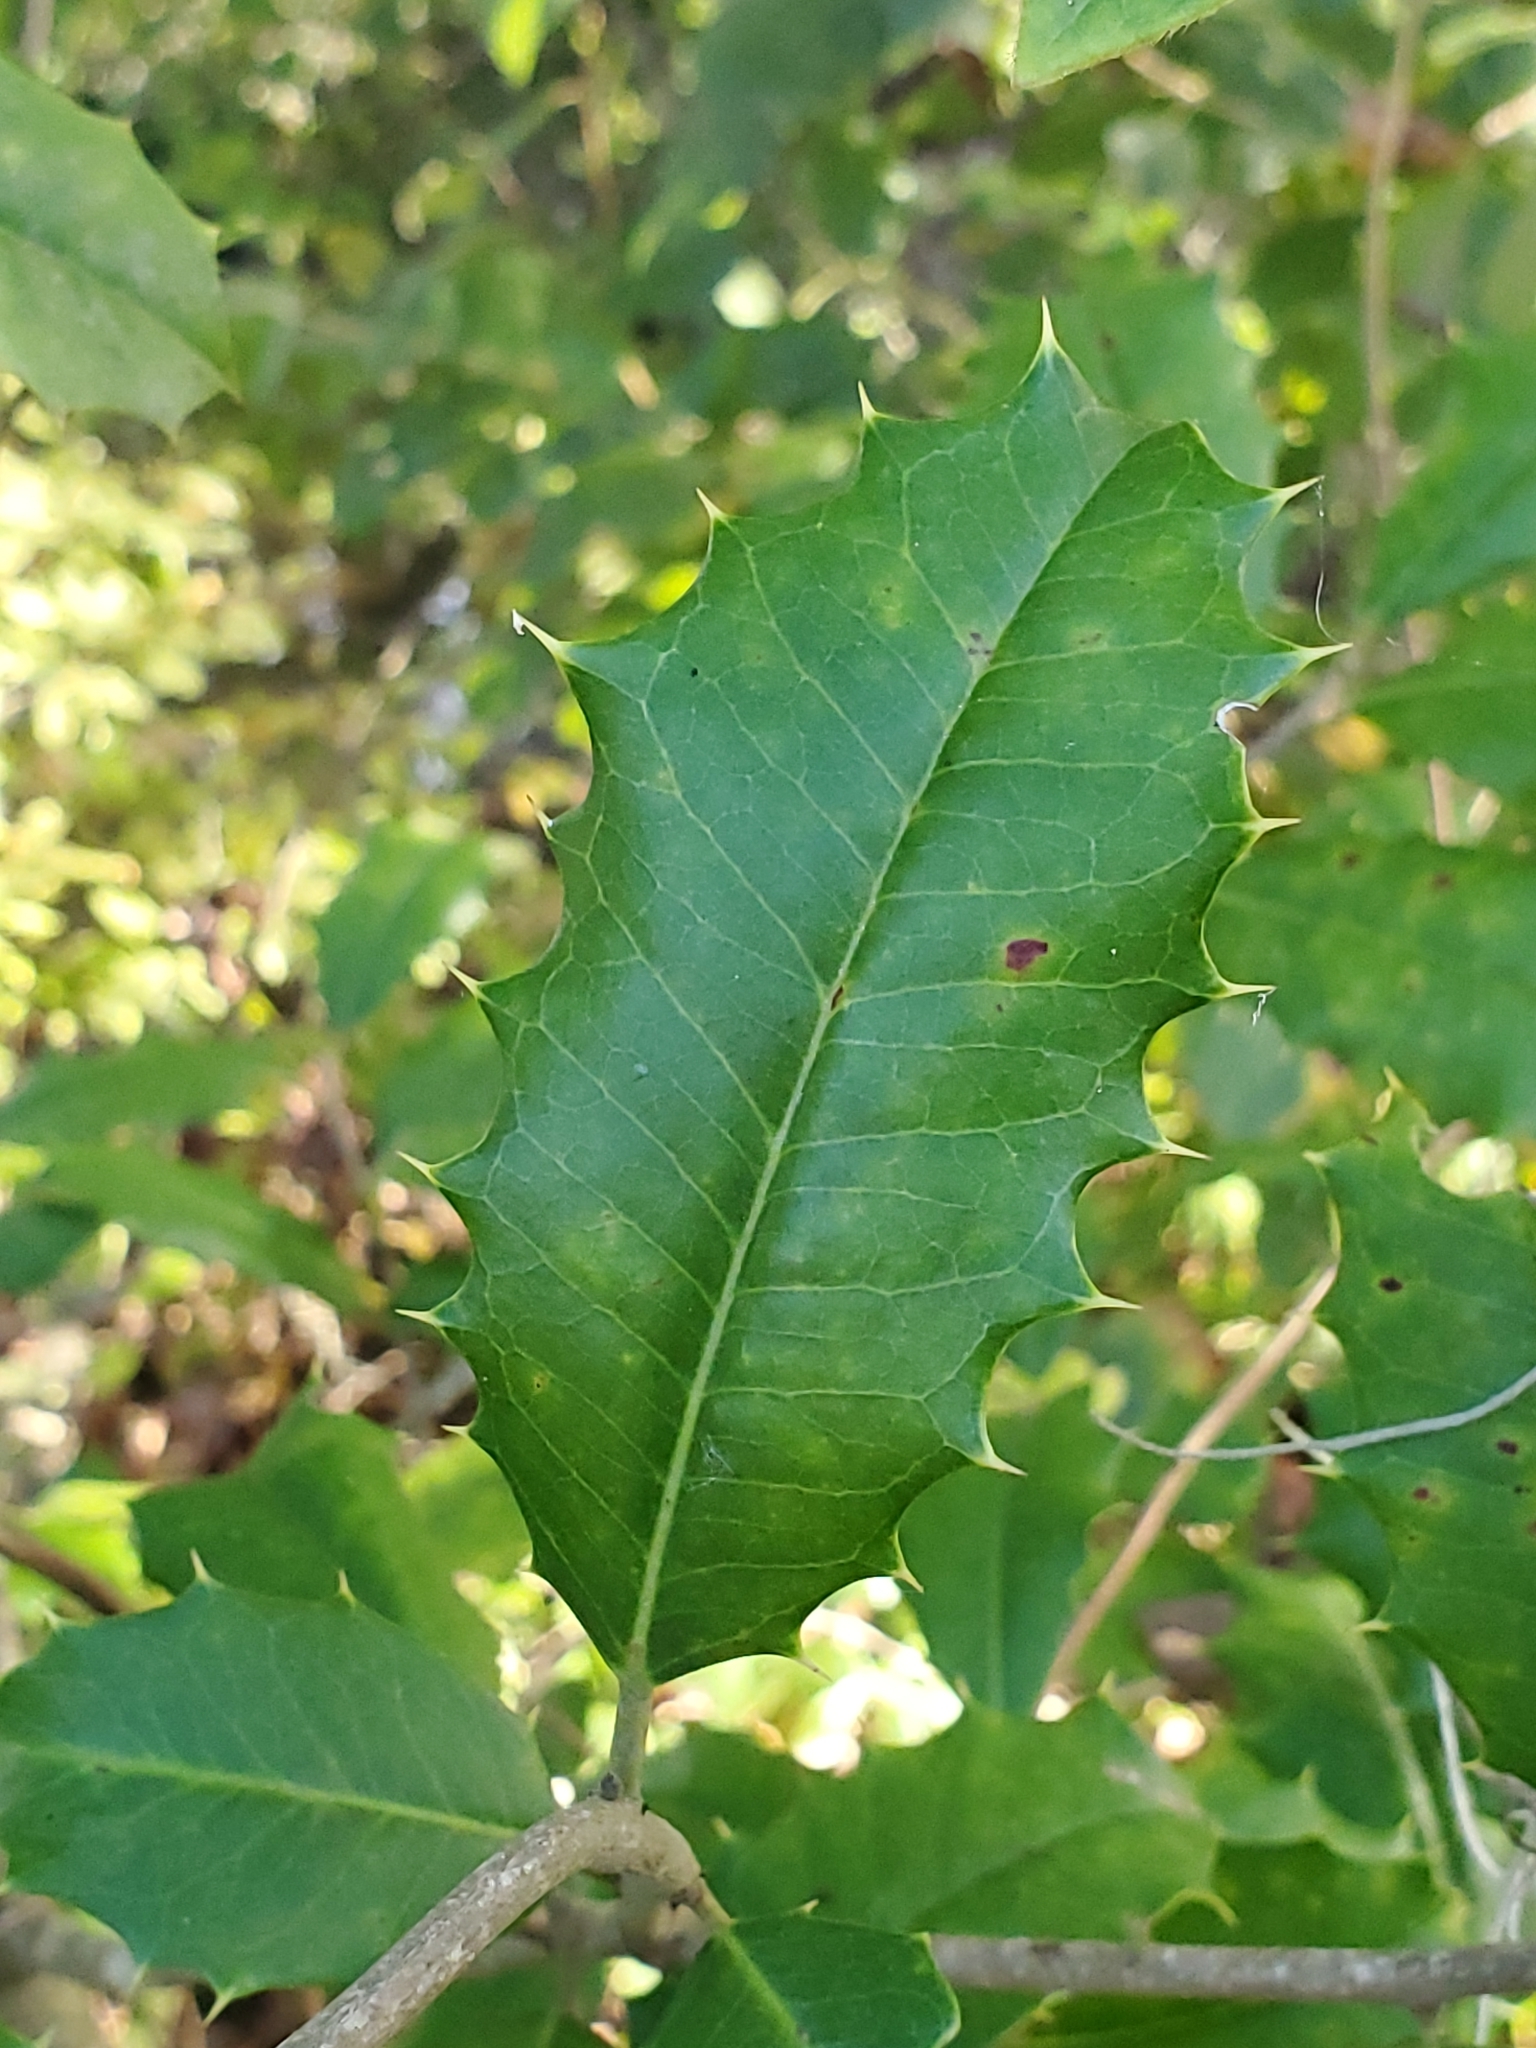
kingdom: Plantae
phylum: Tracheophyta
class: Magnoliopsida
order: Aquifoliales
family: Aquifoliaceae
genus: Ilex
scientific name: Ilex opaca
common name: American holly
